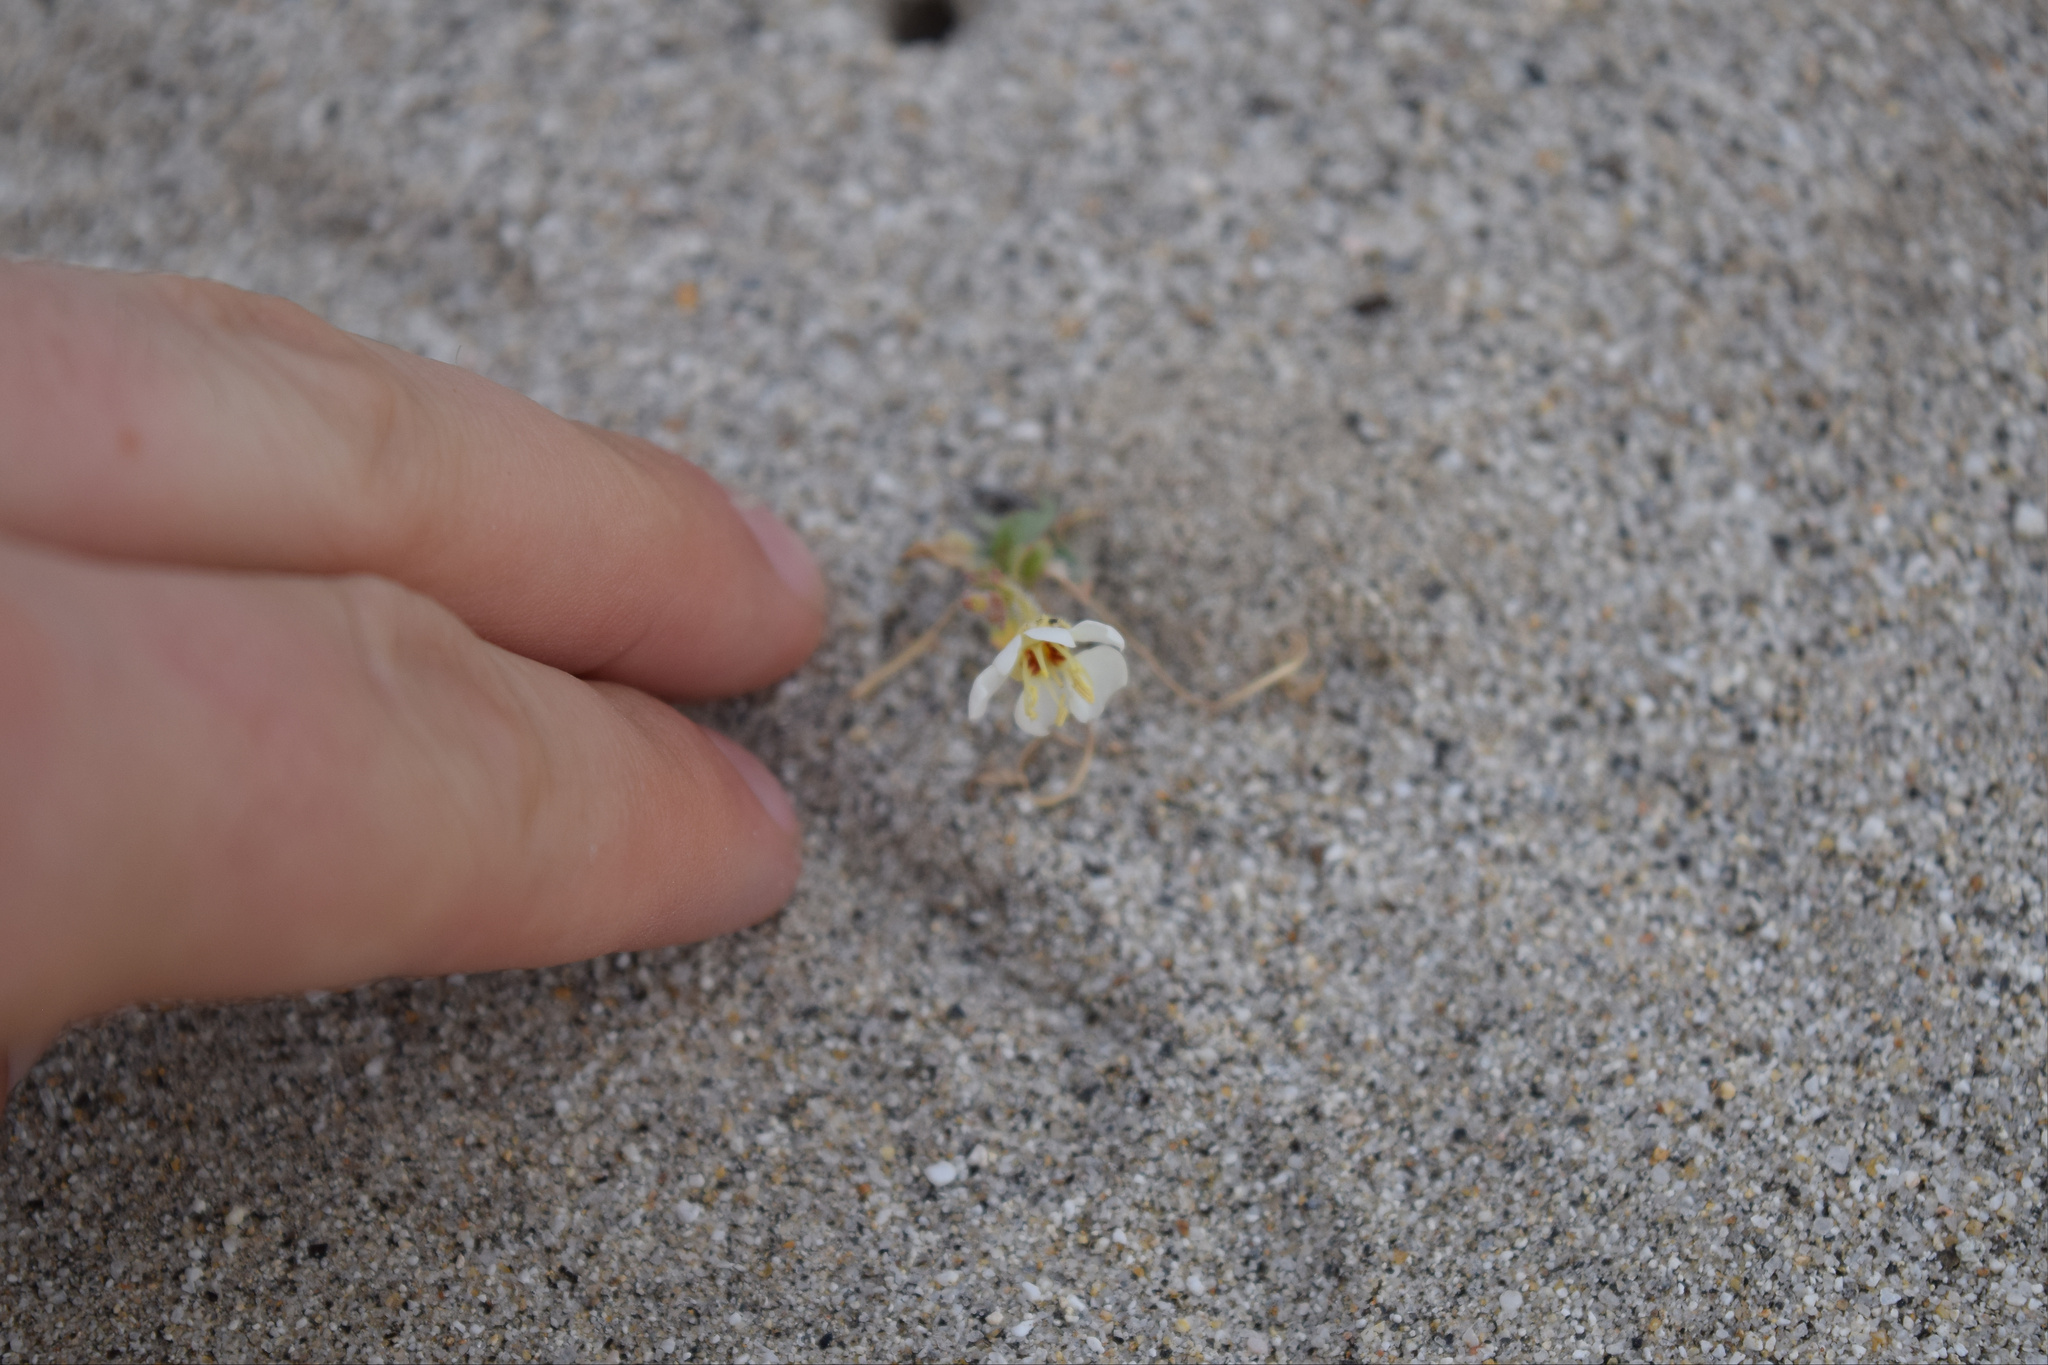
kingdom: Plantae
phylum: Tracheophyta
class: Magnoliopsida
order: Myrtales
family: Onagraceae
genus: Chylismia
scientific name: Chylismia claviformis
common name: Browneyes
